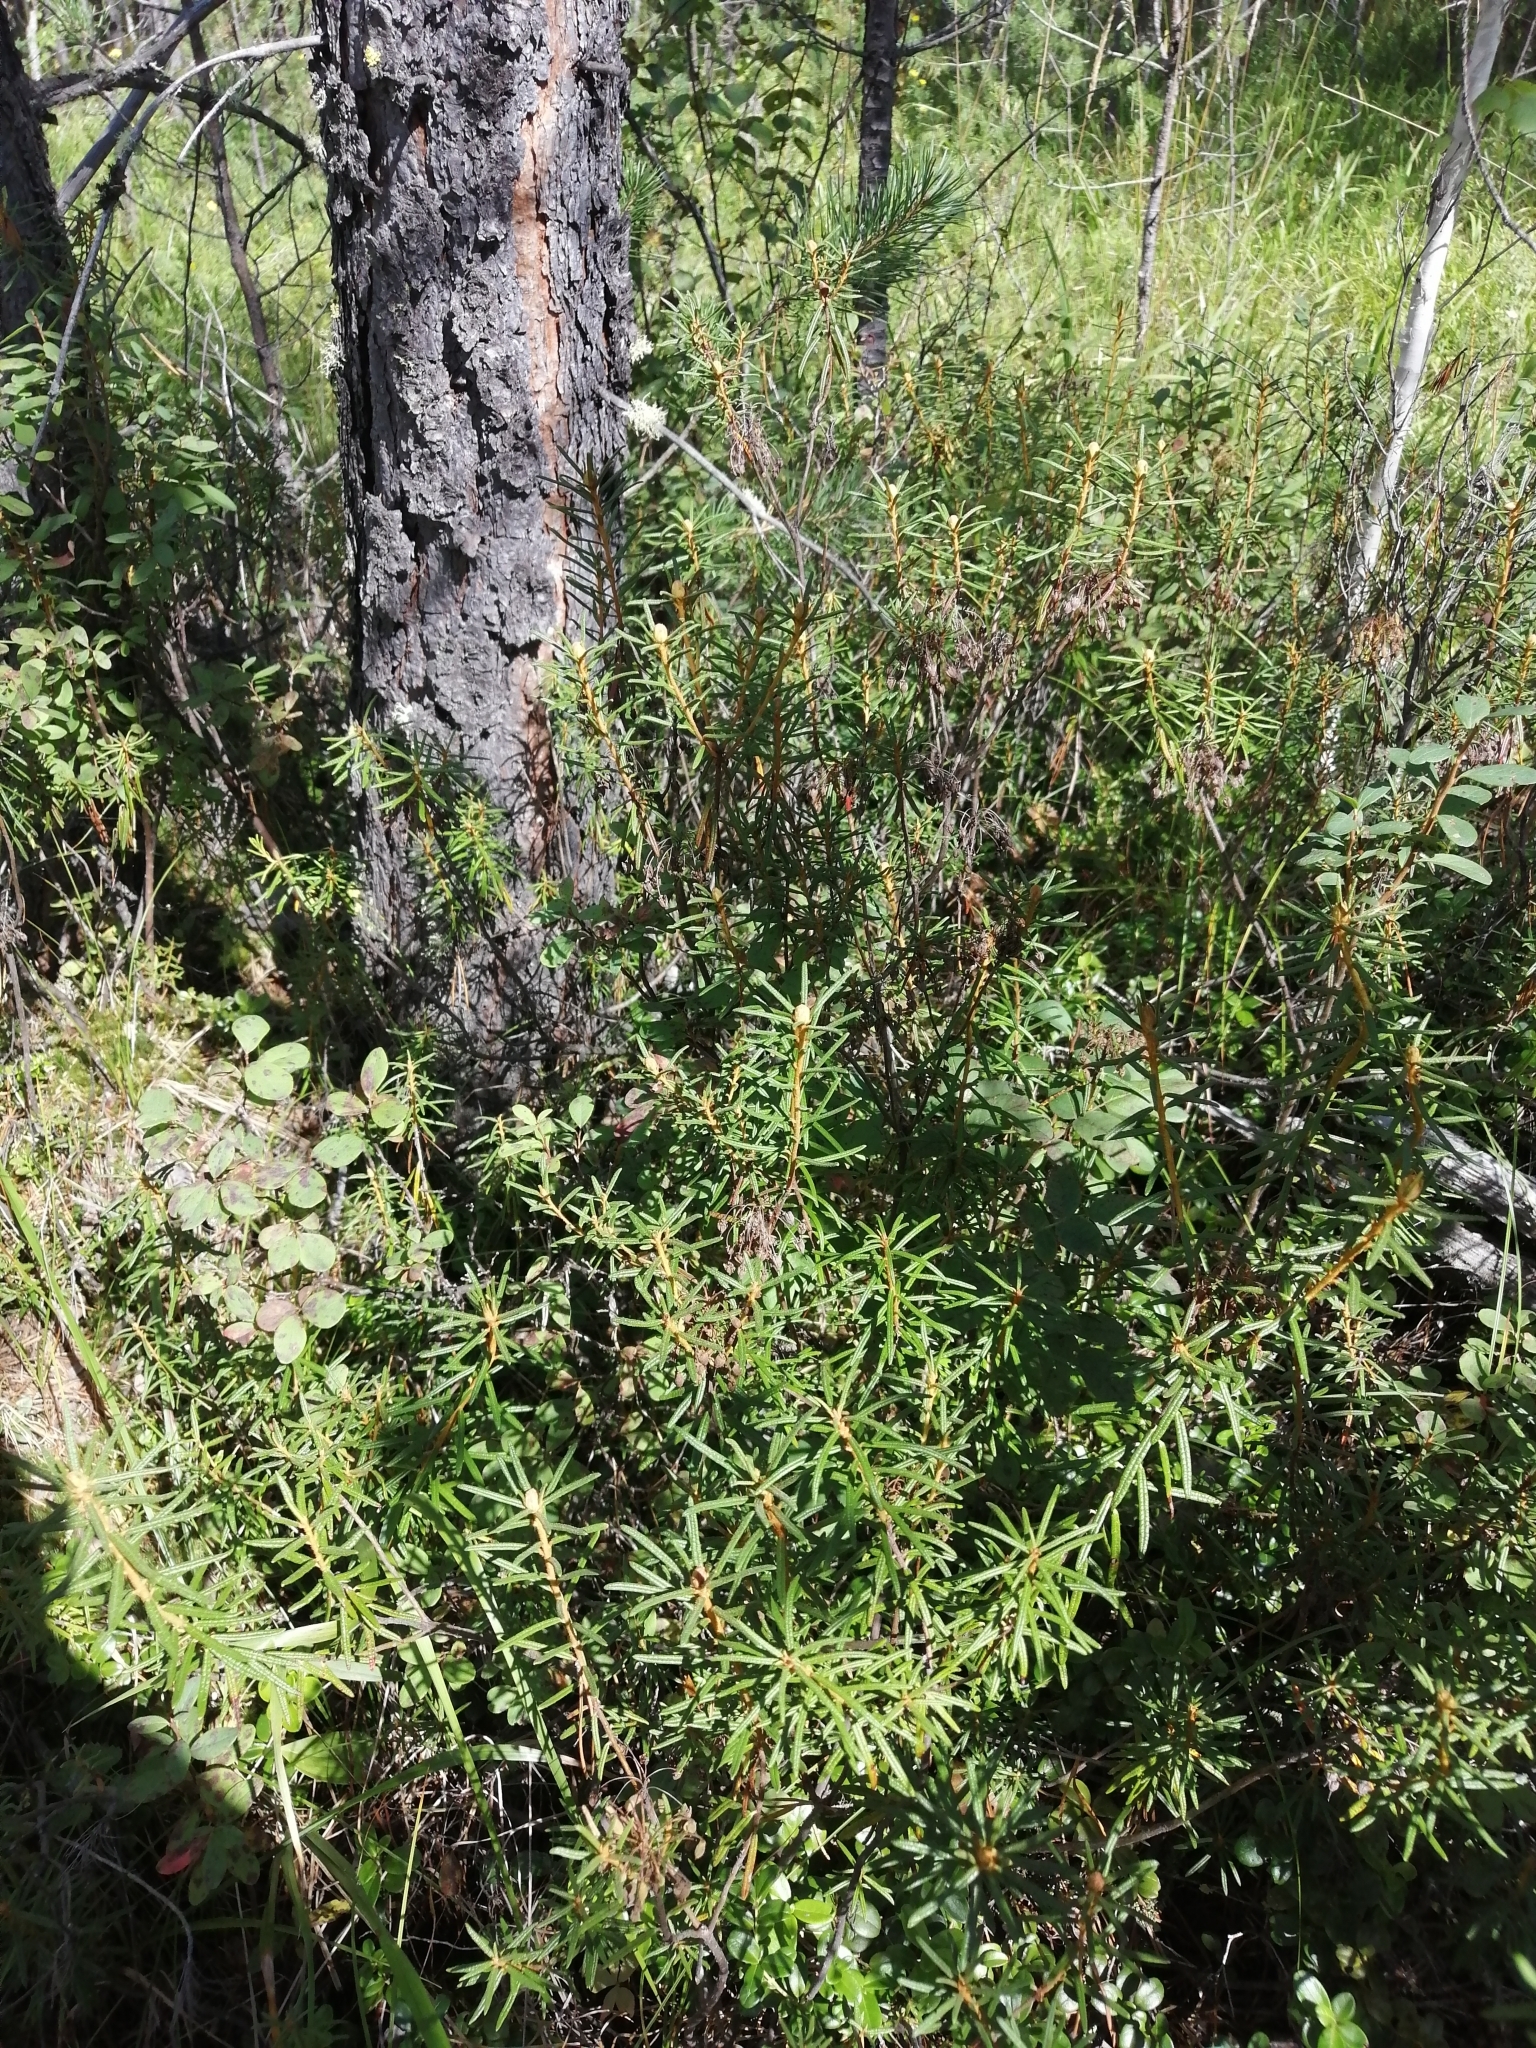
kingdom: Plantae
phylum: Tracheophyta
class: Magnoliopsida
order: Ericales
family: Ericaceae
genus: Rhododendron
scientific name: Rhododendron tomentosum
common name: Marsh labrador tea
